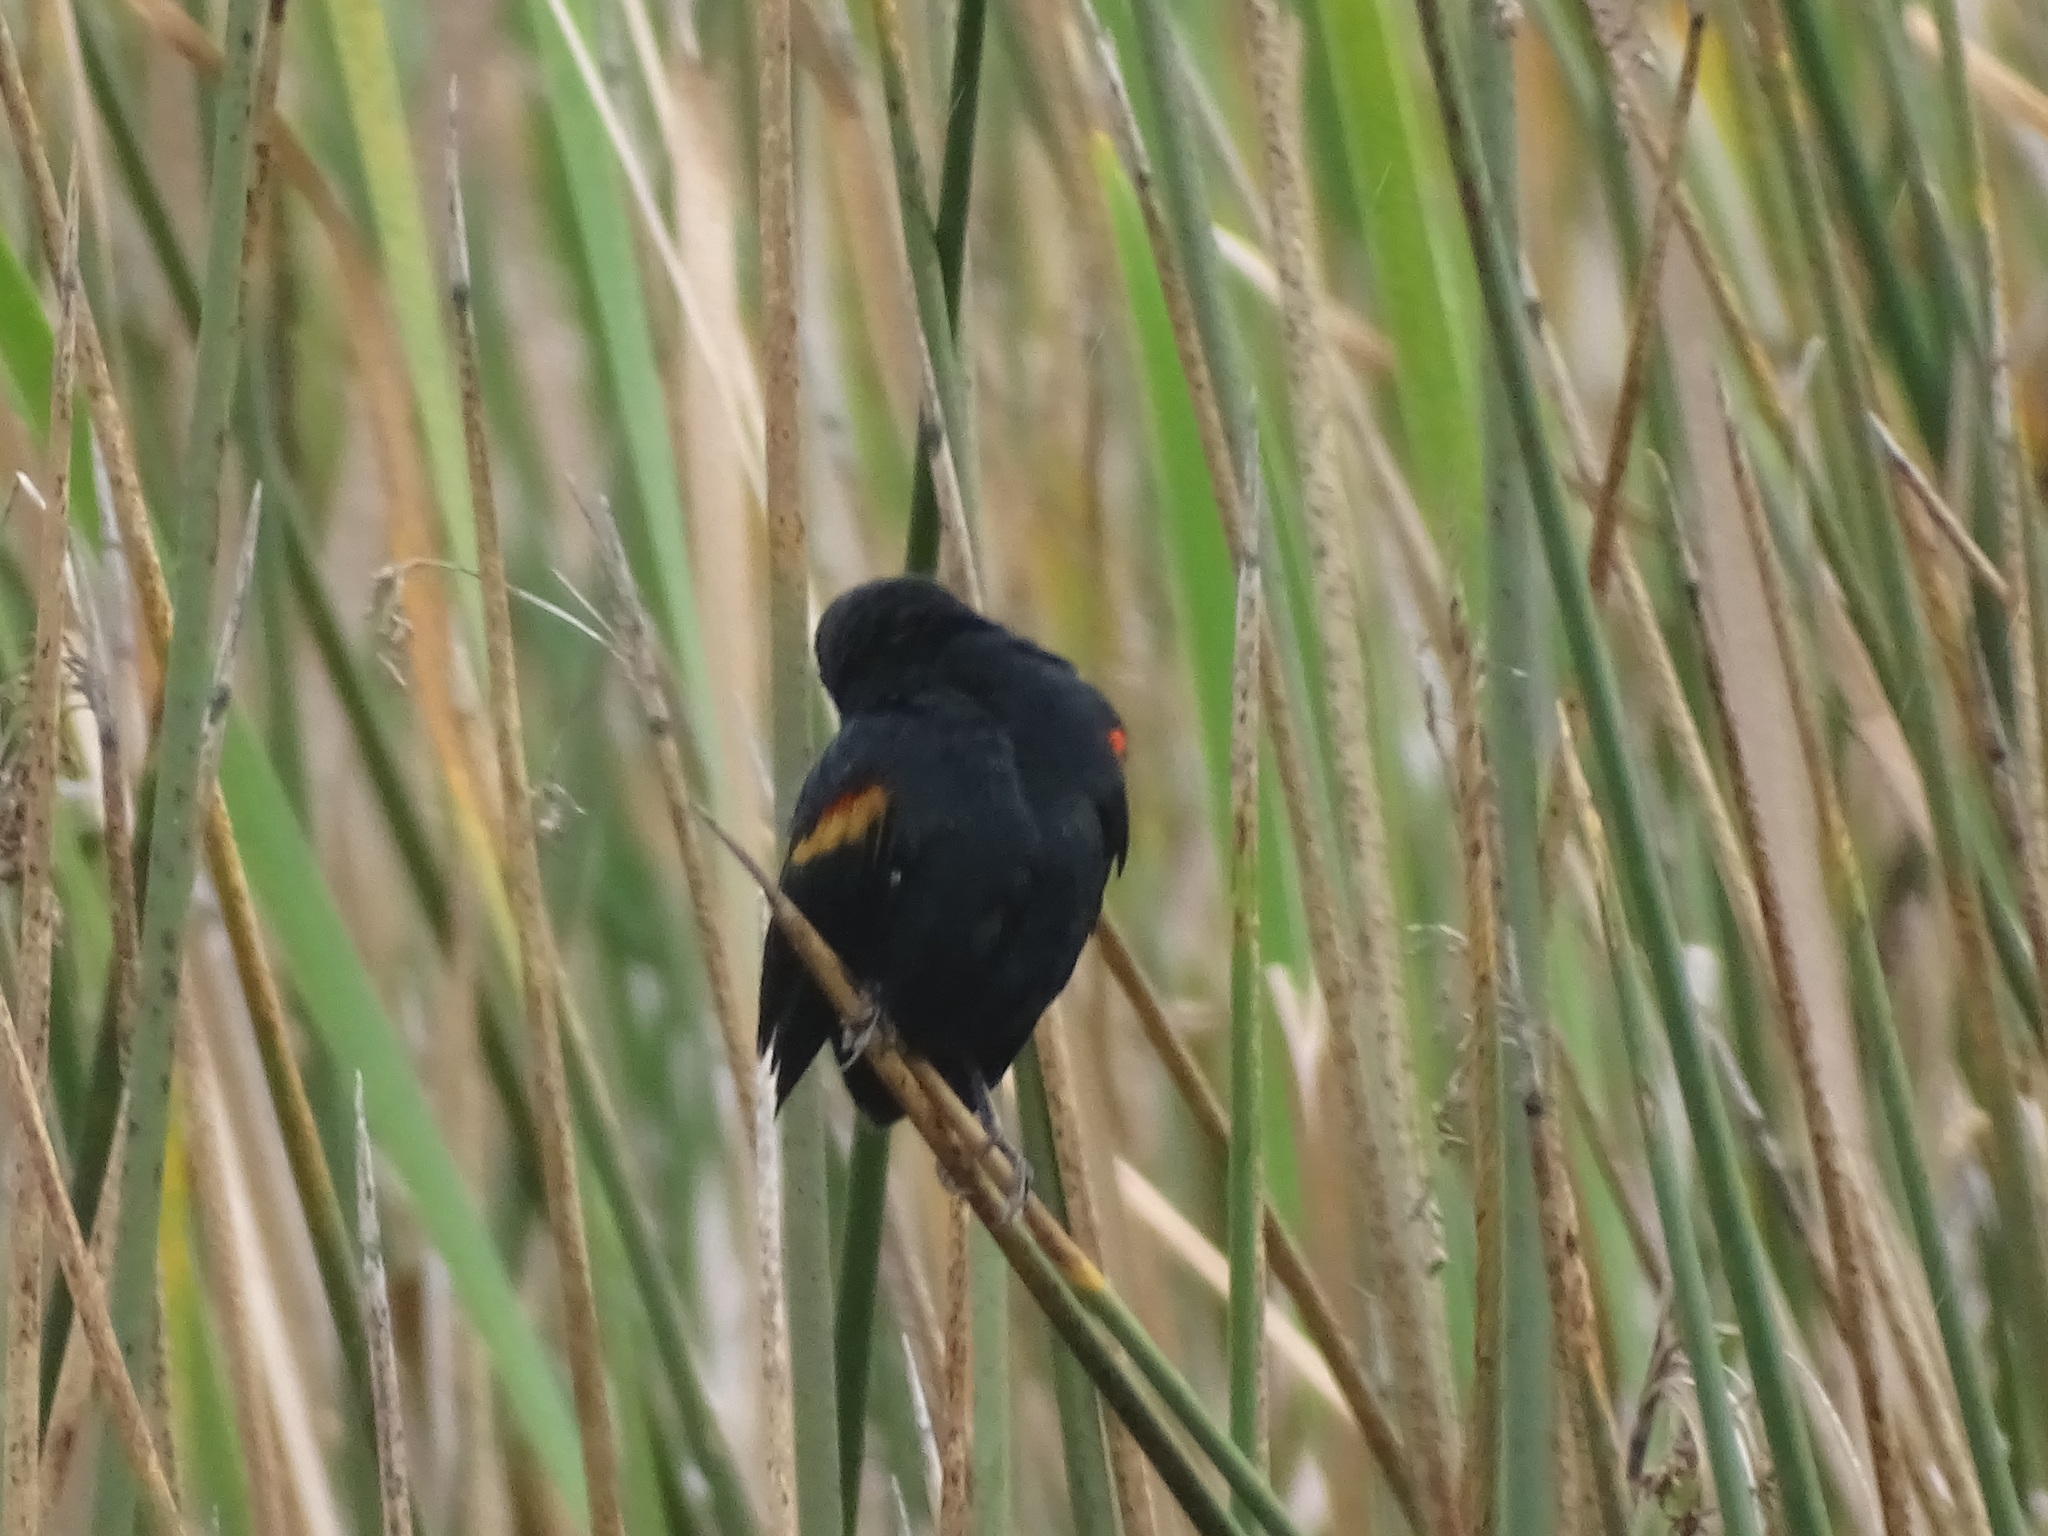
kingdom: Animalia
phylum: Chordata
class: Aves
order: Passeriformes
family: Icteridae
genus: Agelaius
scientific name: Agelaius phoeniceus
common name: Red-winged blackbird
